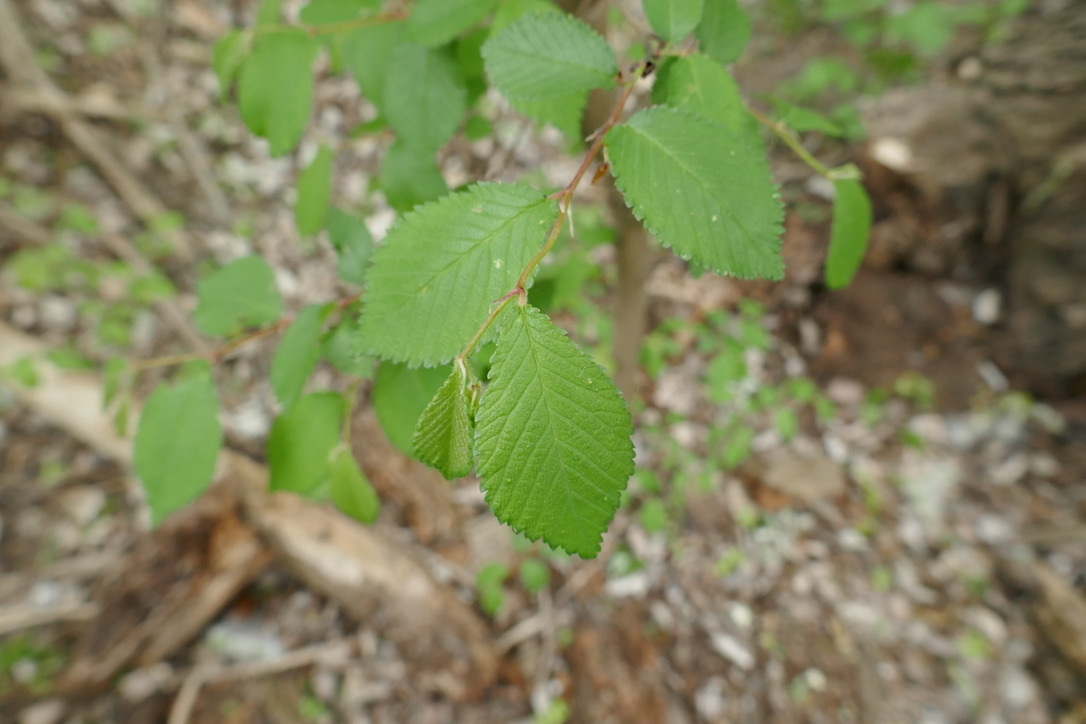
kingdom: Plantae
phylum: Tracheophyta
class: Magnoliopsida
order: Rosales
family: Ulmaceae
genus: Ulmus
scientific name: Ulmus minor
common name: Small-leaved elm
